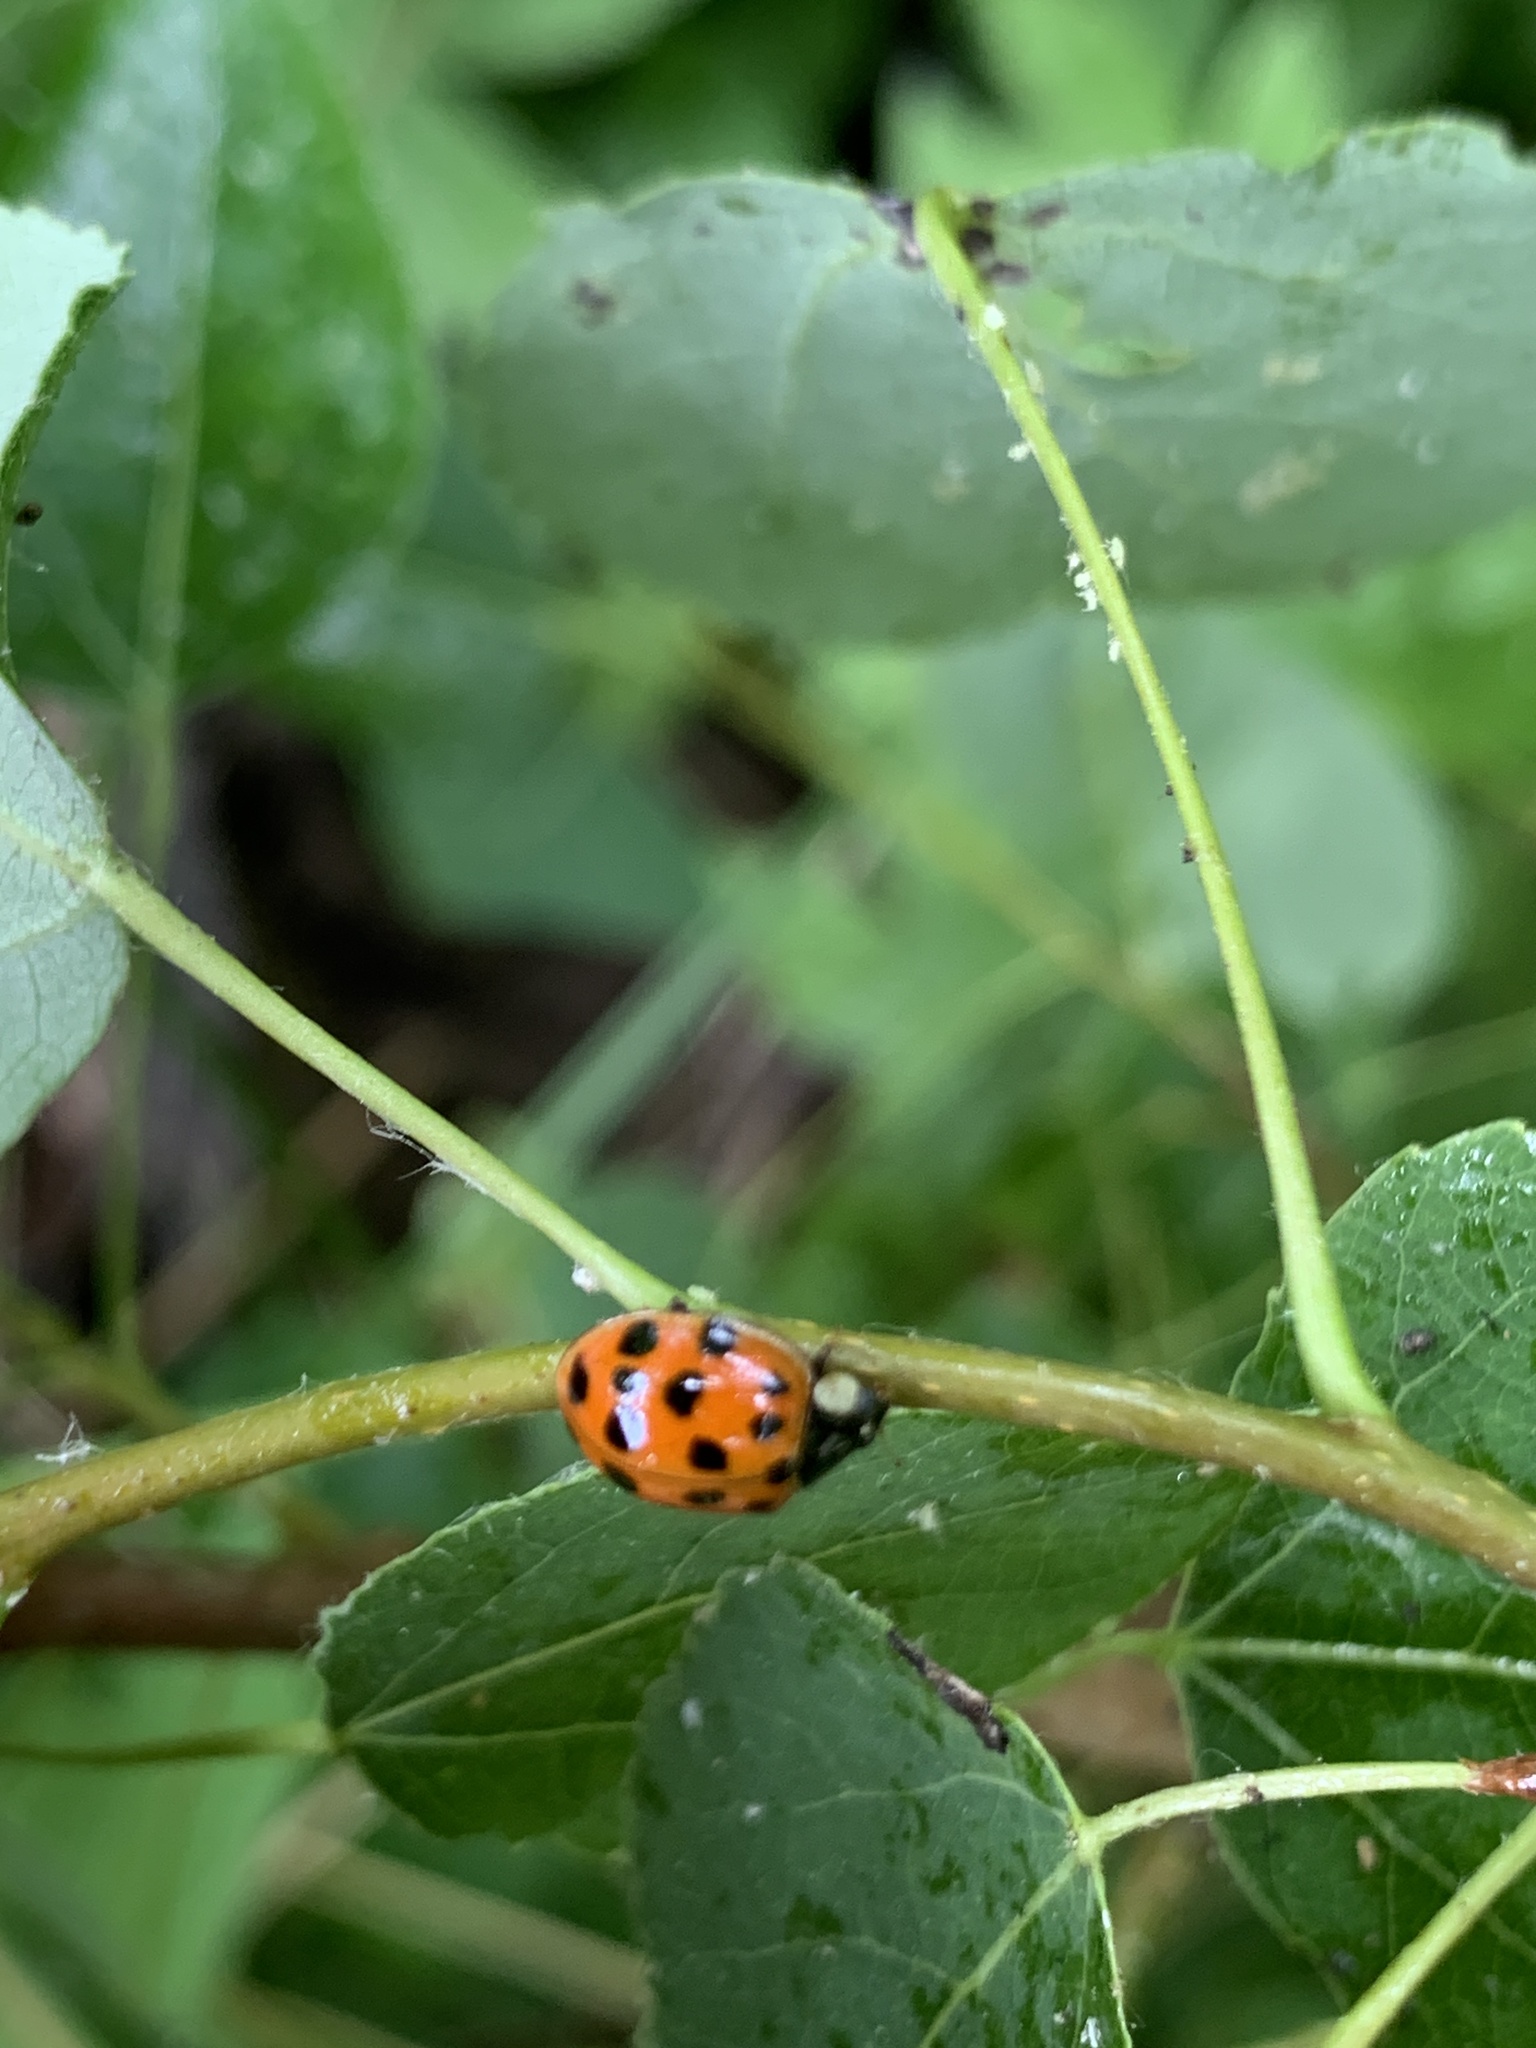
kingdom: Animalia
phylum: Arthropoda
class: Insecta
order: Coleoptera
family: Coccinellidae
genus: Harmonia
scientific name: Harmonia axyridis
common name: Harlequin ladybird
